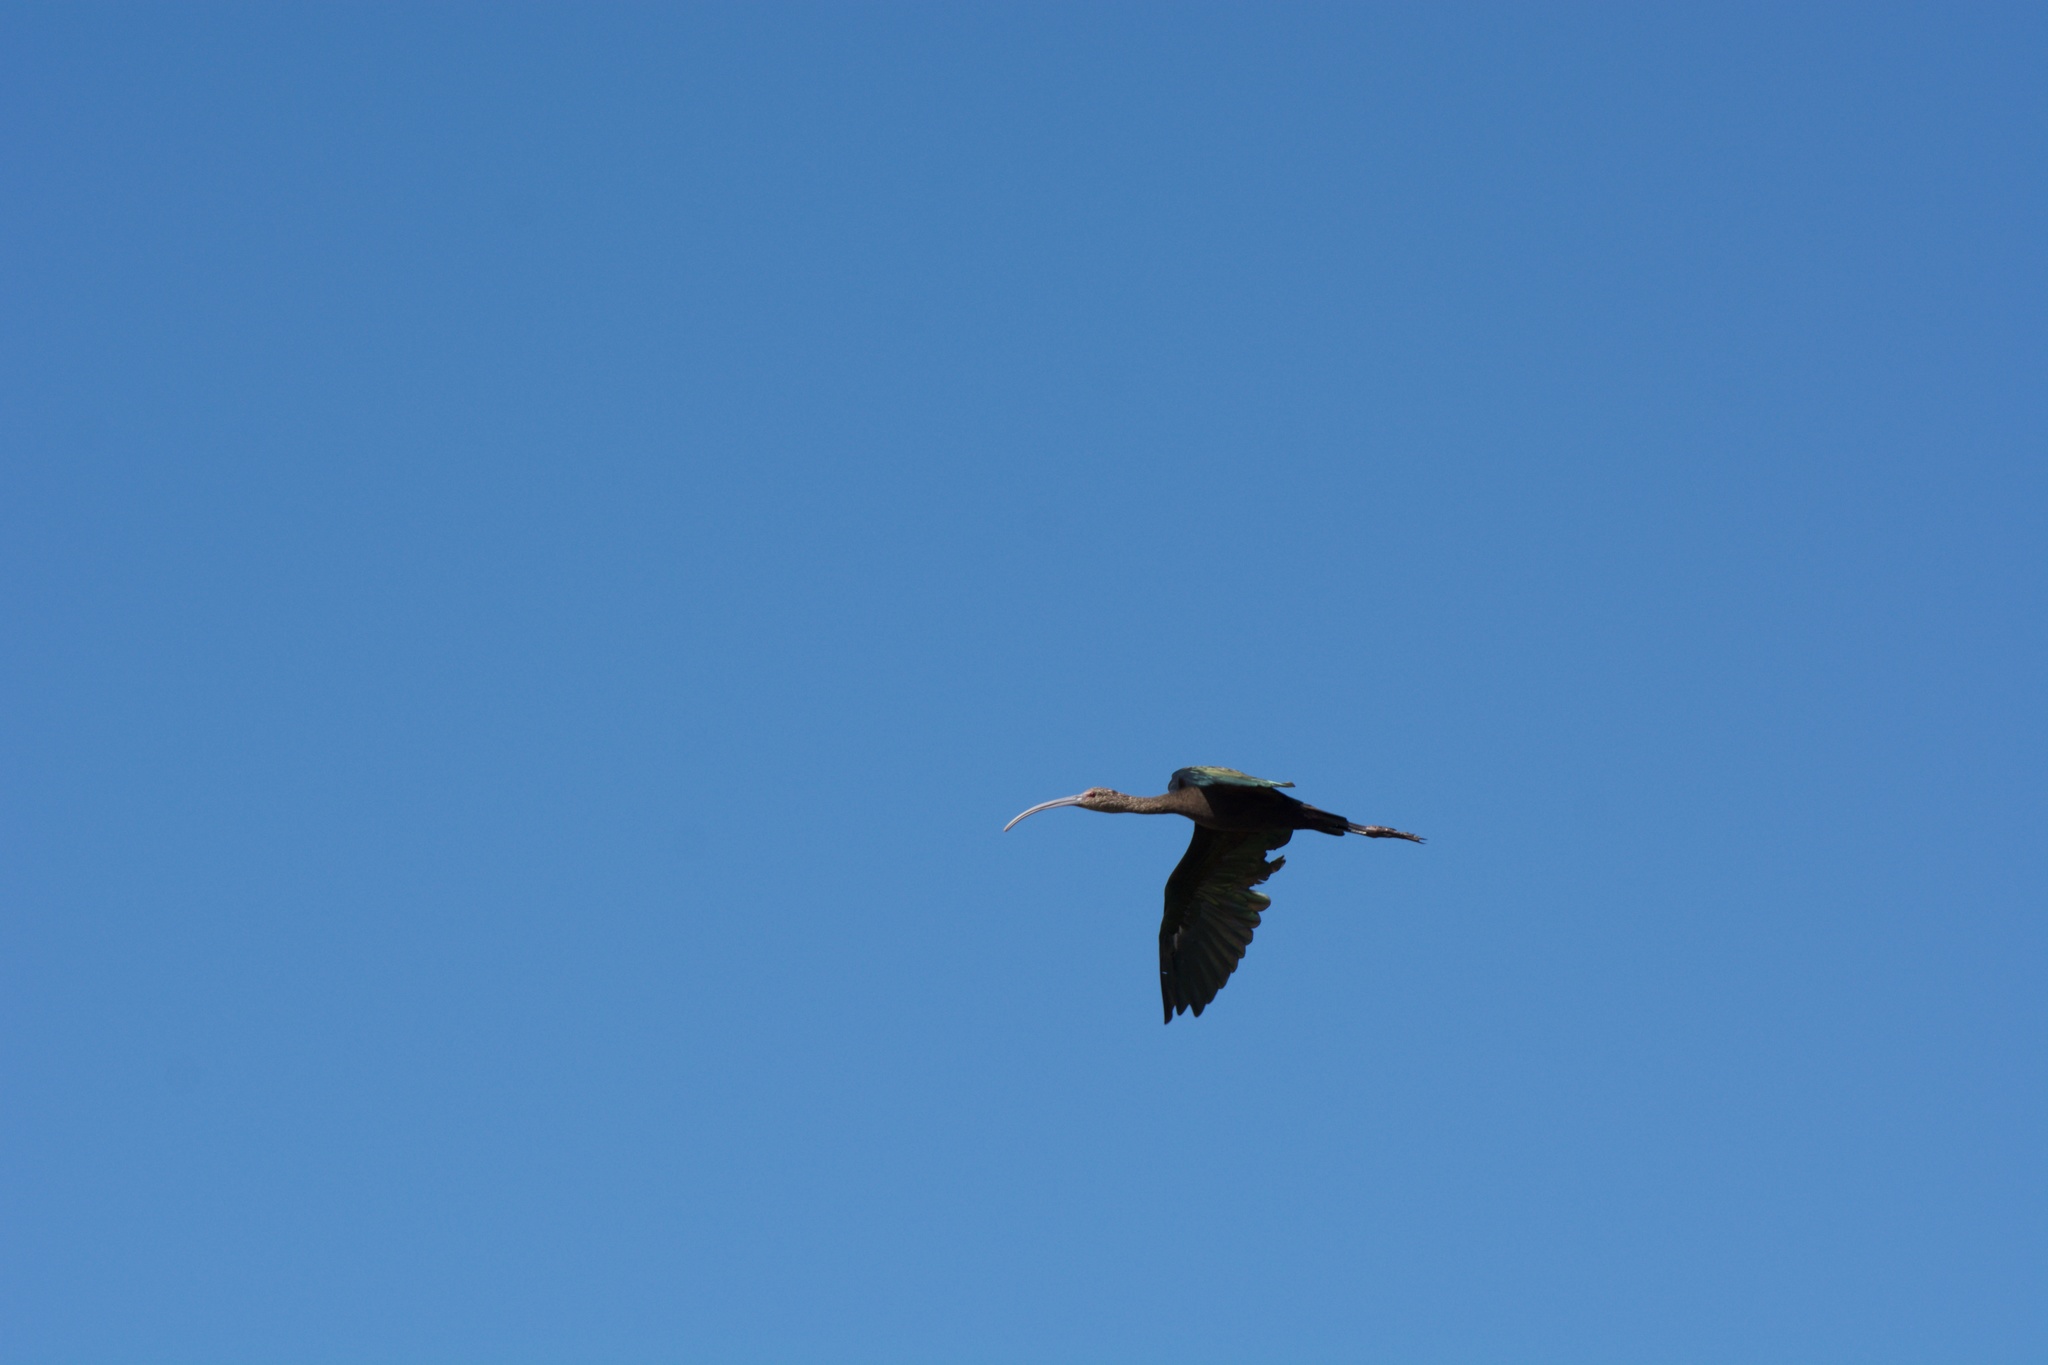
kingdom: Animalia
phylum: Chordata
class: Aves
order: Pelecaniformes
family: Threskiornithidae
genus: Plegadis
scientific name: Plegadis chihi
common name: White-faced ibis
